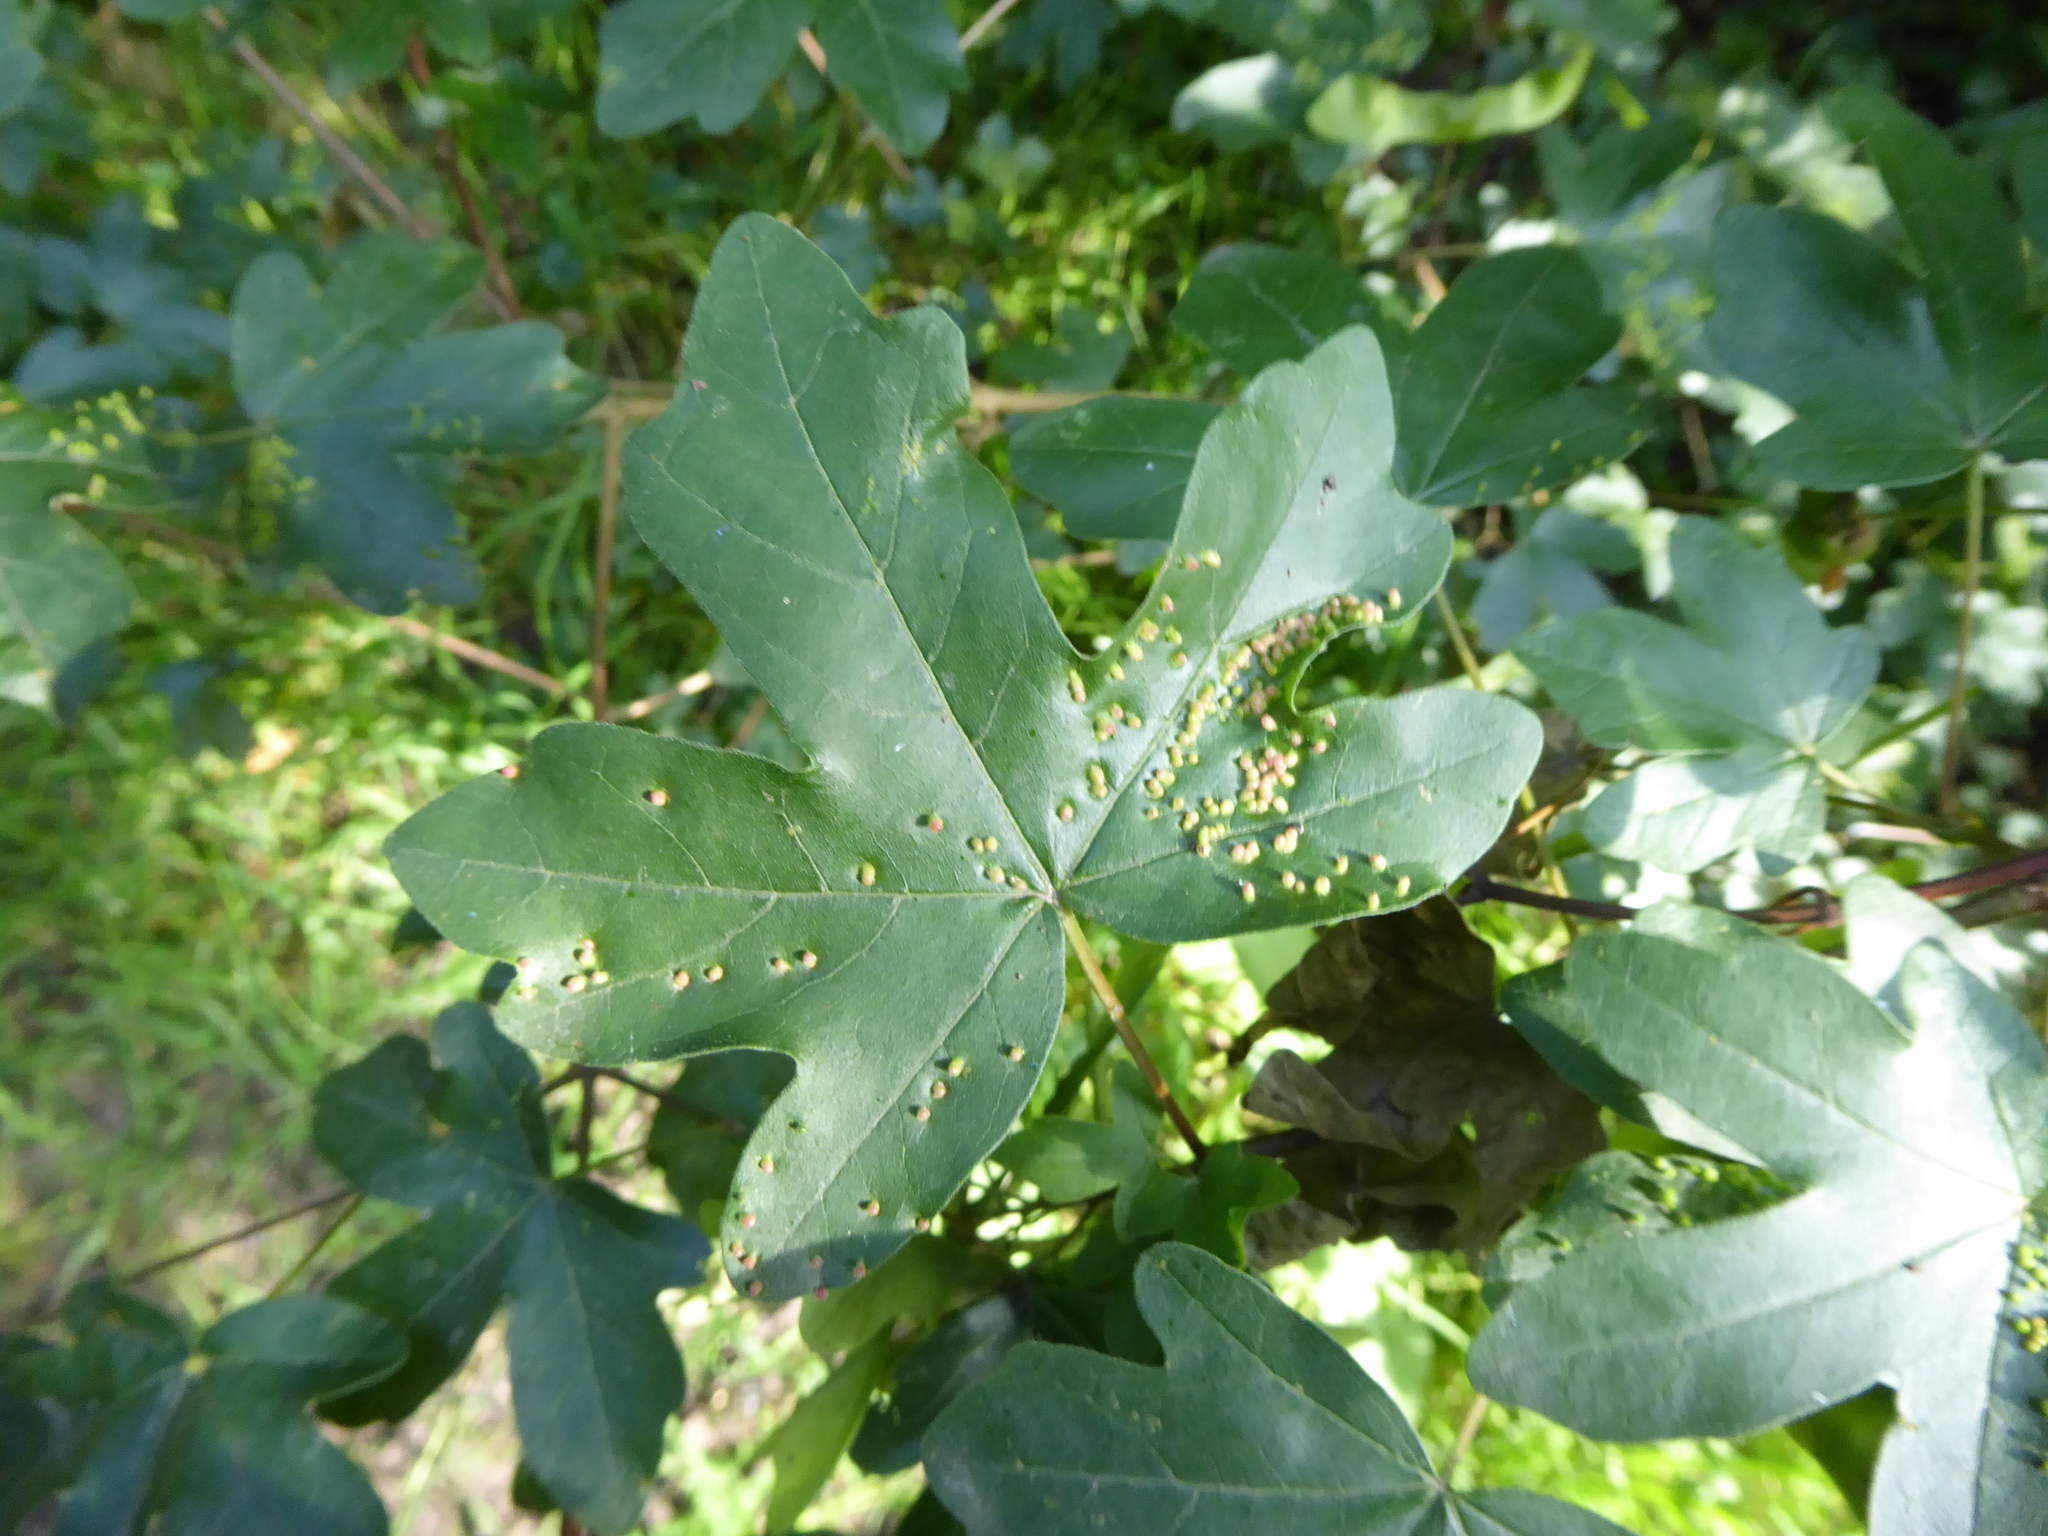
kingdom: Plantae
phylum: Tracheophyta
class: Magnoliopsida
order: Sapindales
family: Sapindaceae
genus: Acer
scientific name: Acer campestre
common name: Field maple
